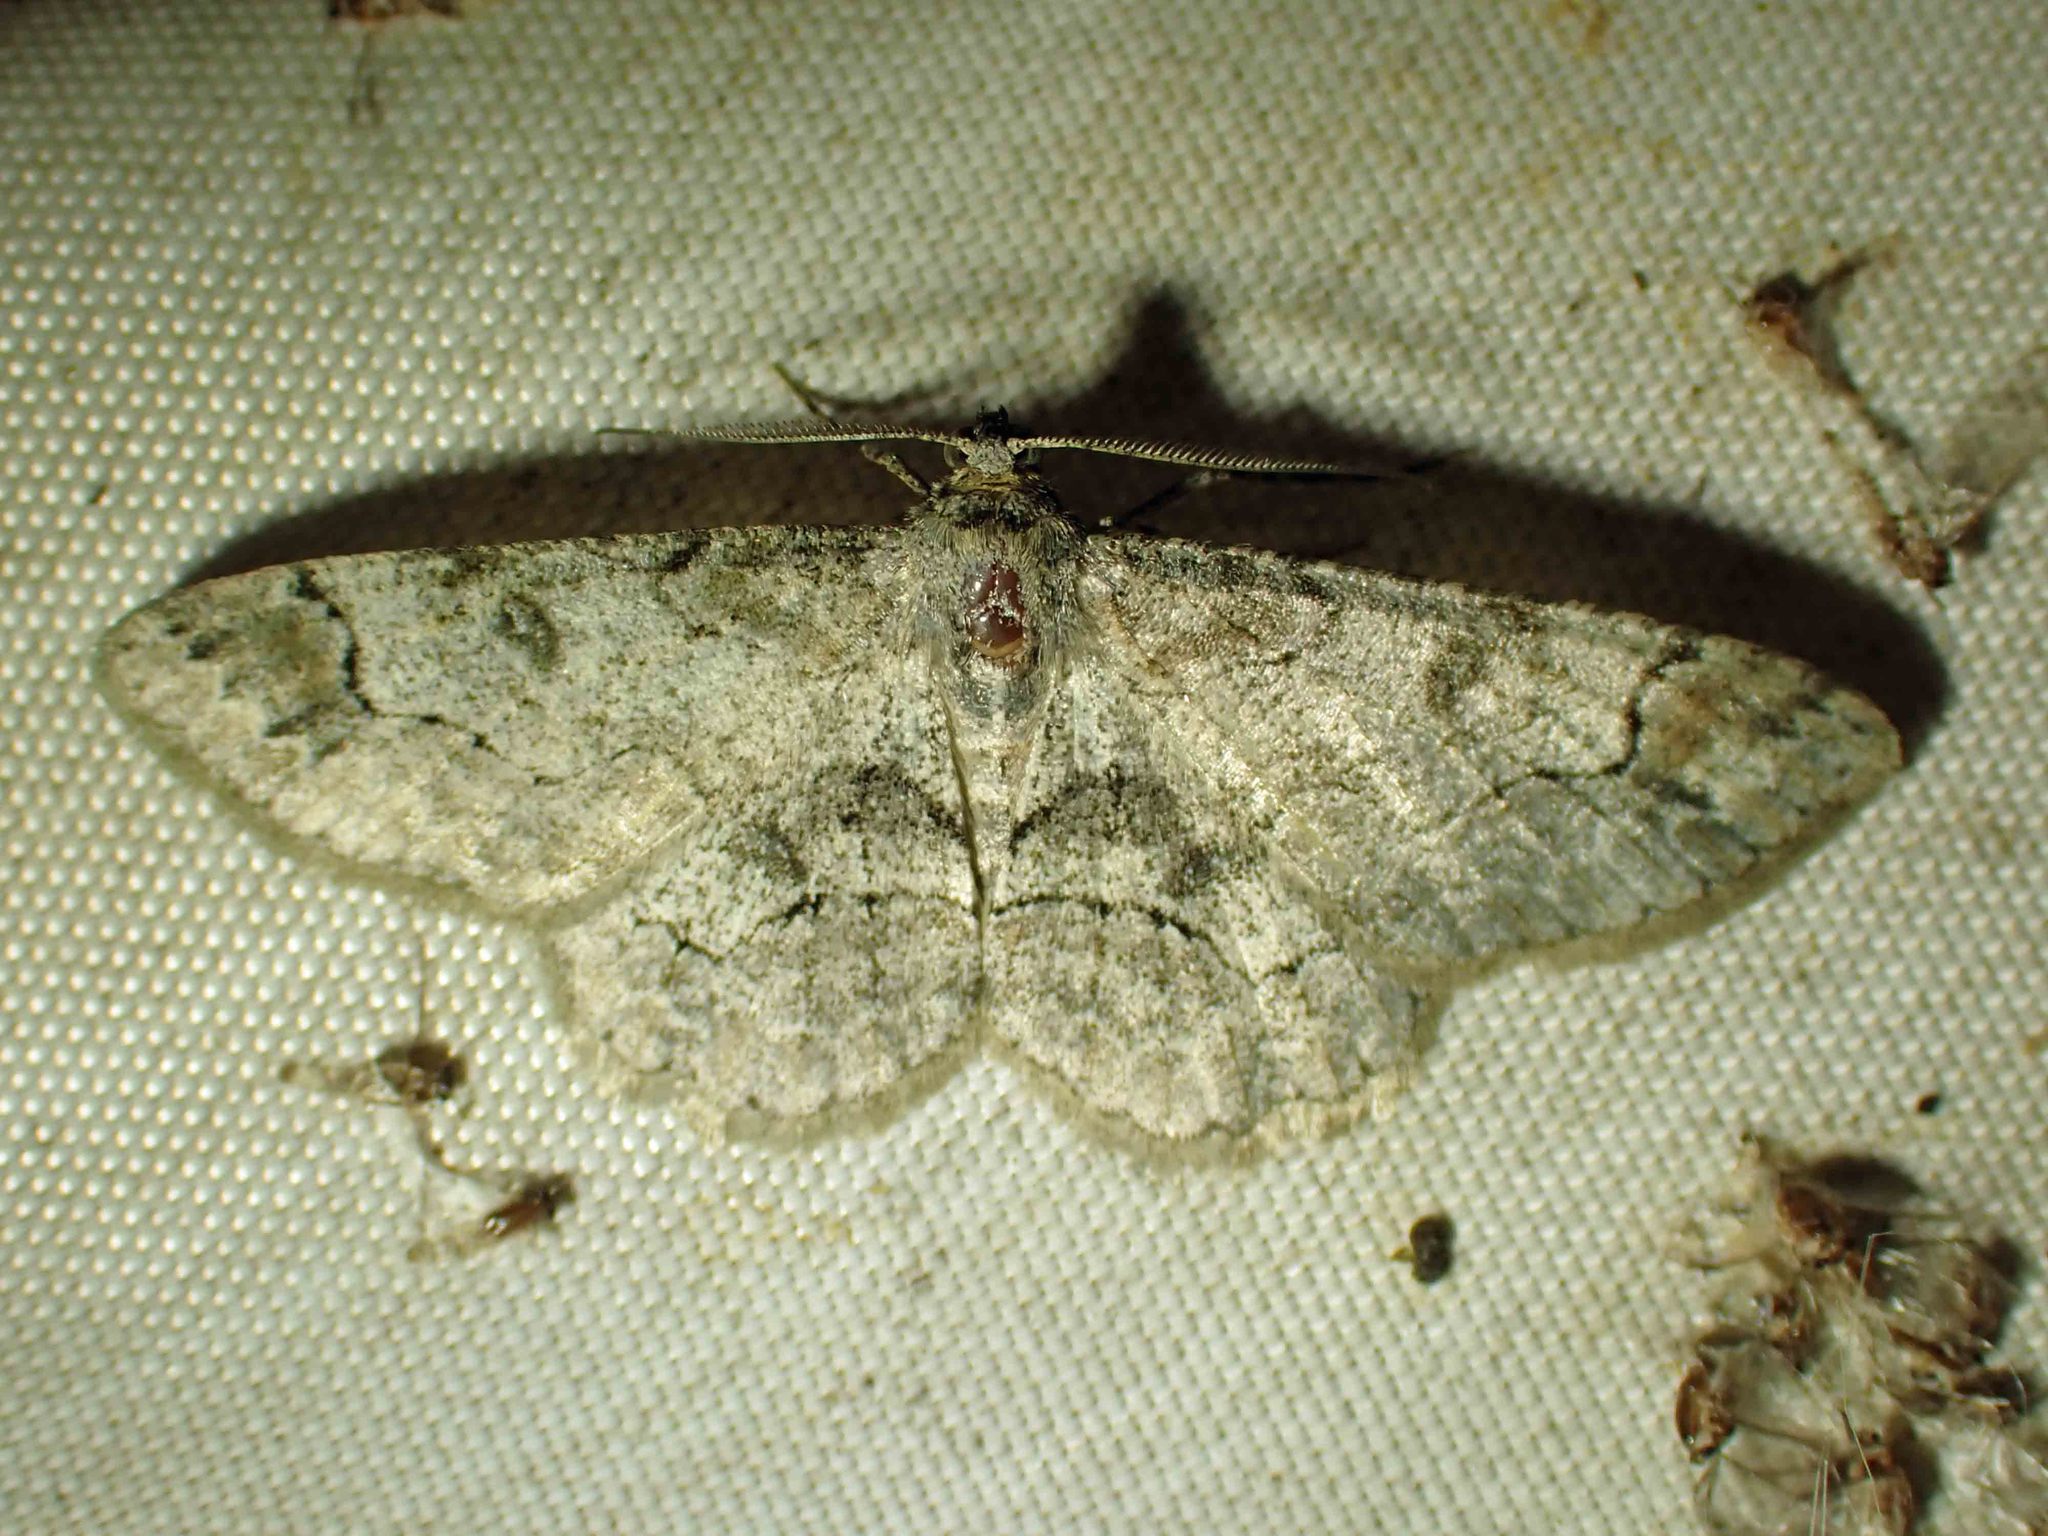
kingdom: Animalia
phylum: Arthropoda
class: Insecta
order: Lepidoptera
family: Geometridae
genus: Iridopsis
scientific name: Iridopsis larvaria
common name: Bent-line gray
